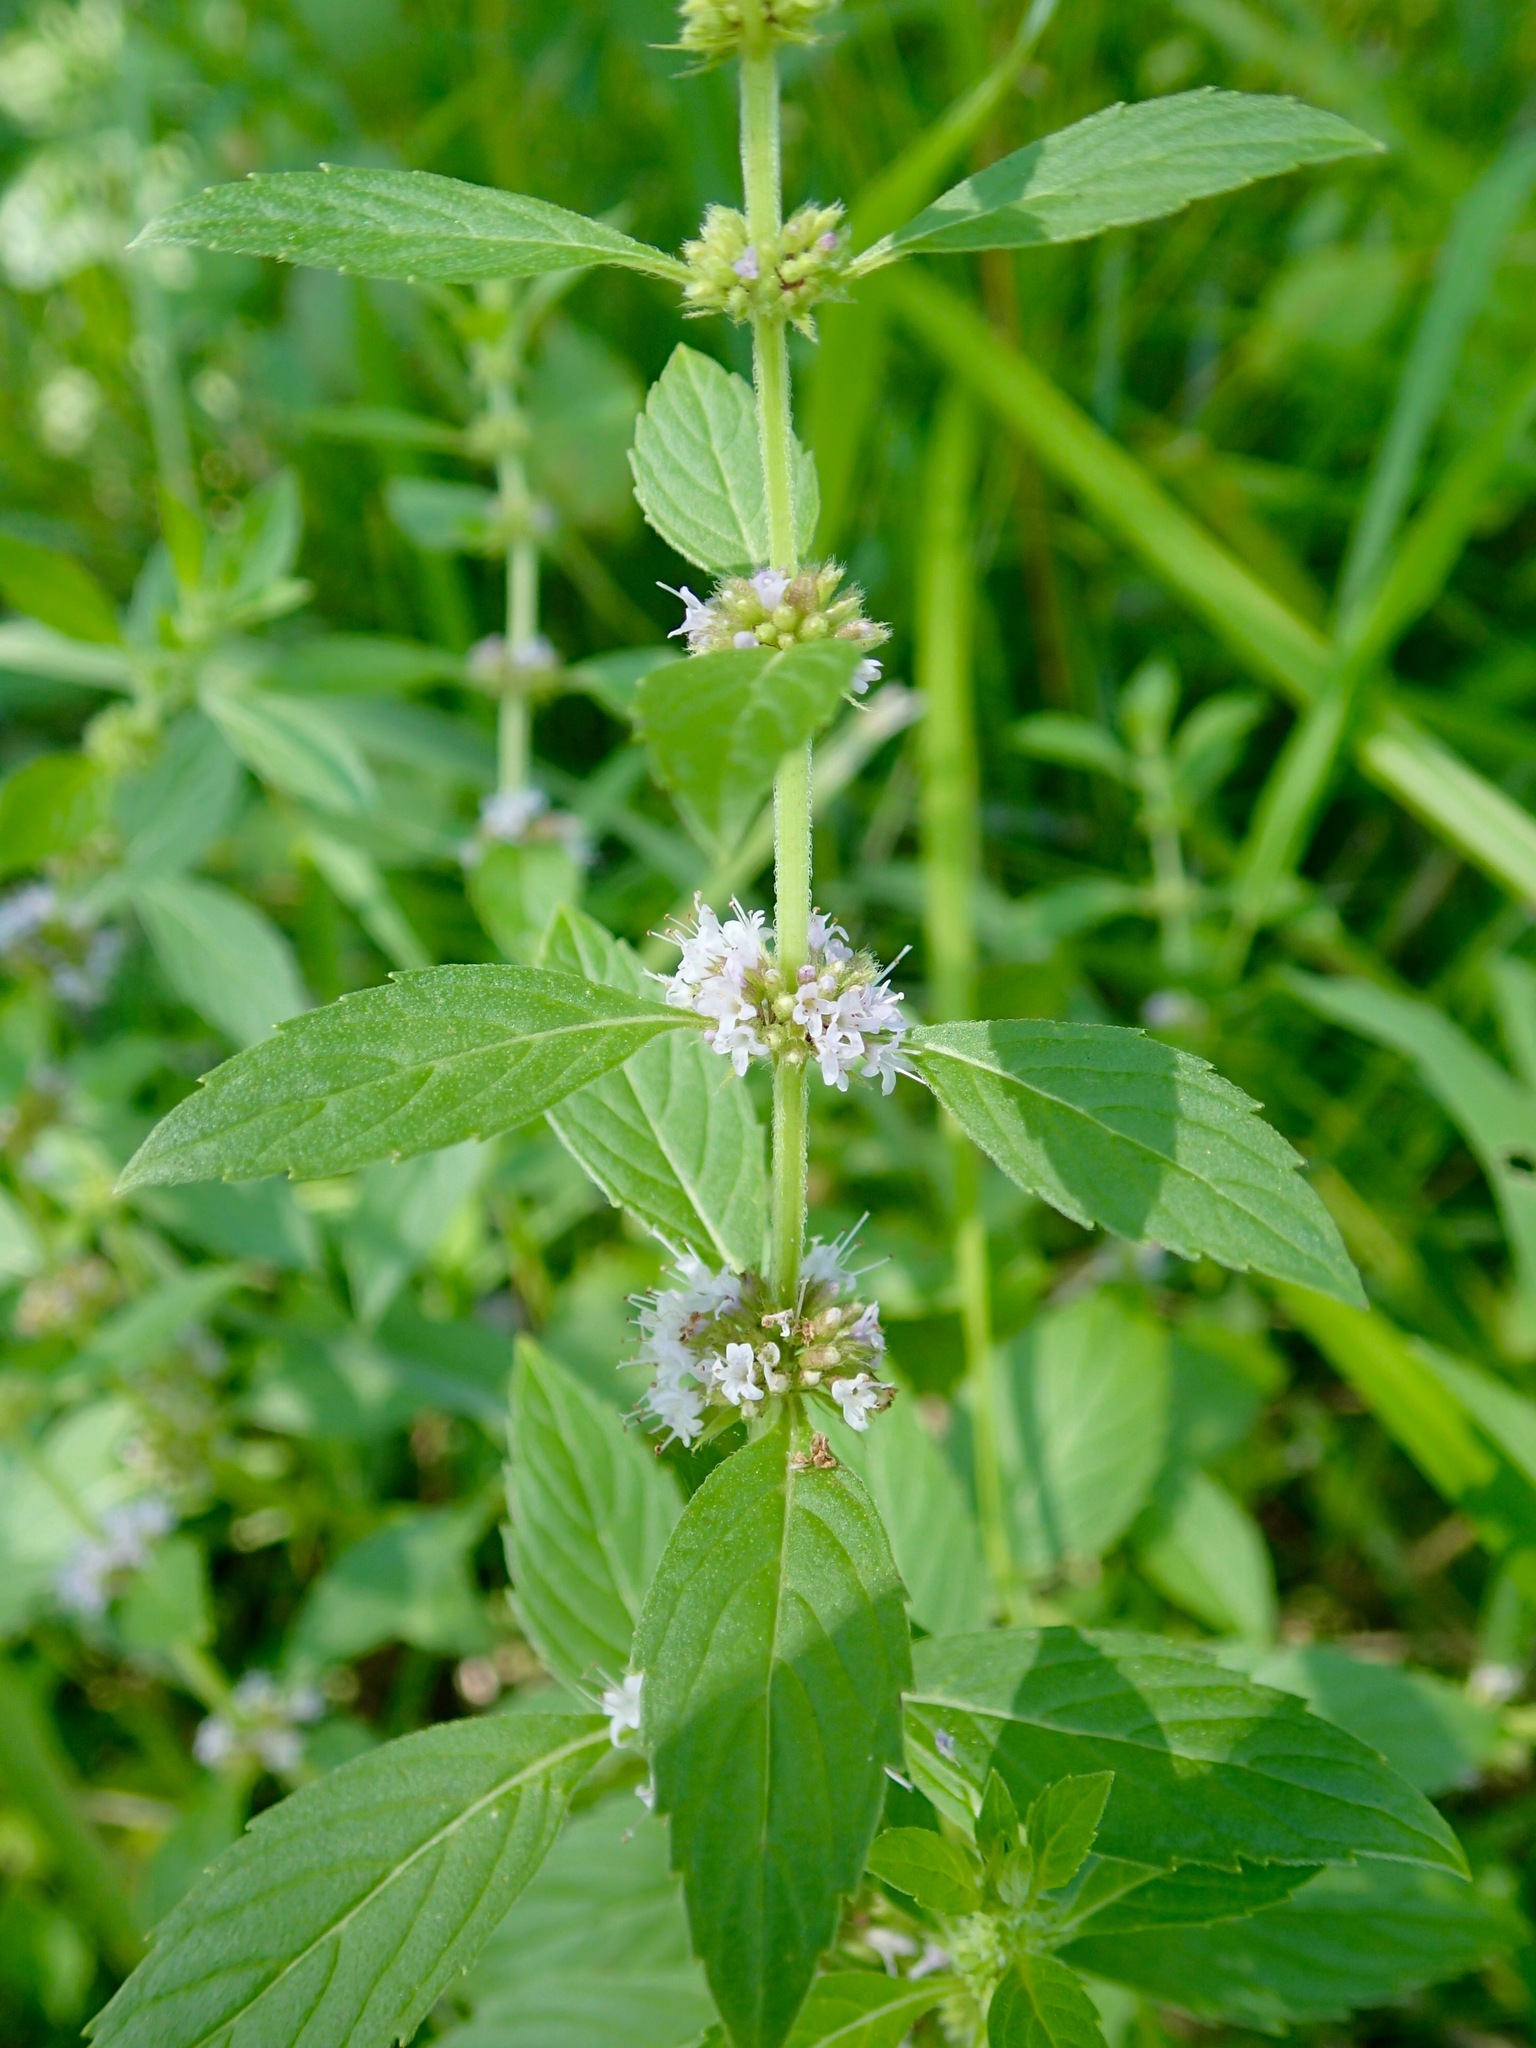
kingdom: Plantae
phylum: Tracheophyta
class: Magnoliopsida
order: Lamiales
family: Lamiaceae
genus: Mentha
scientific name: Mentha arvensis
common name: Corn mint
